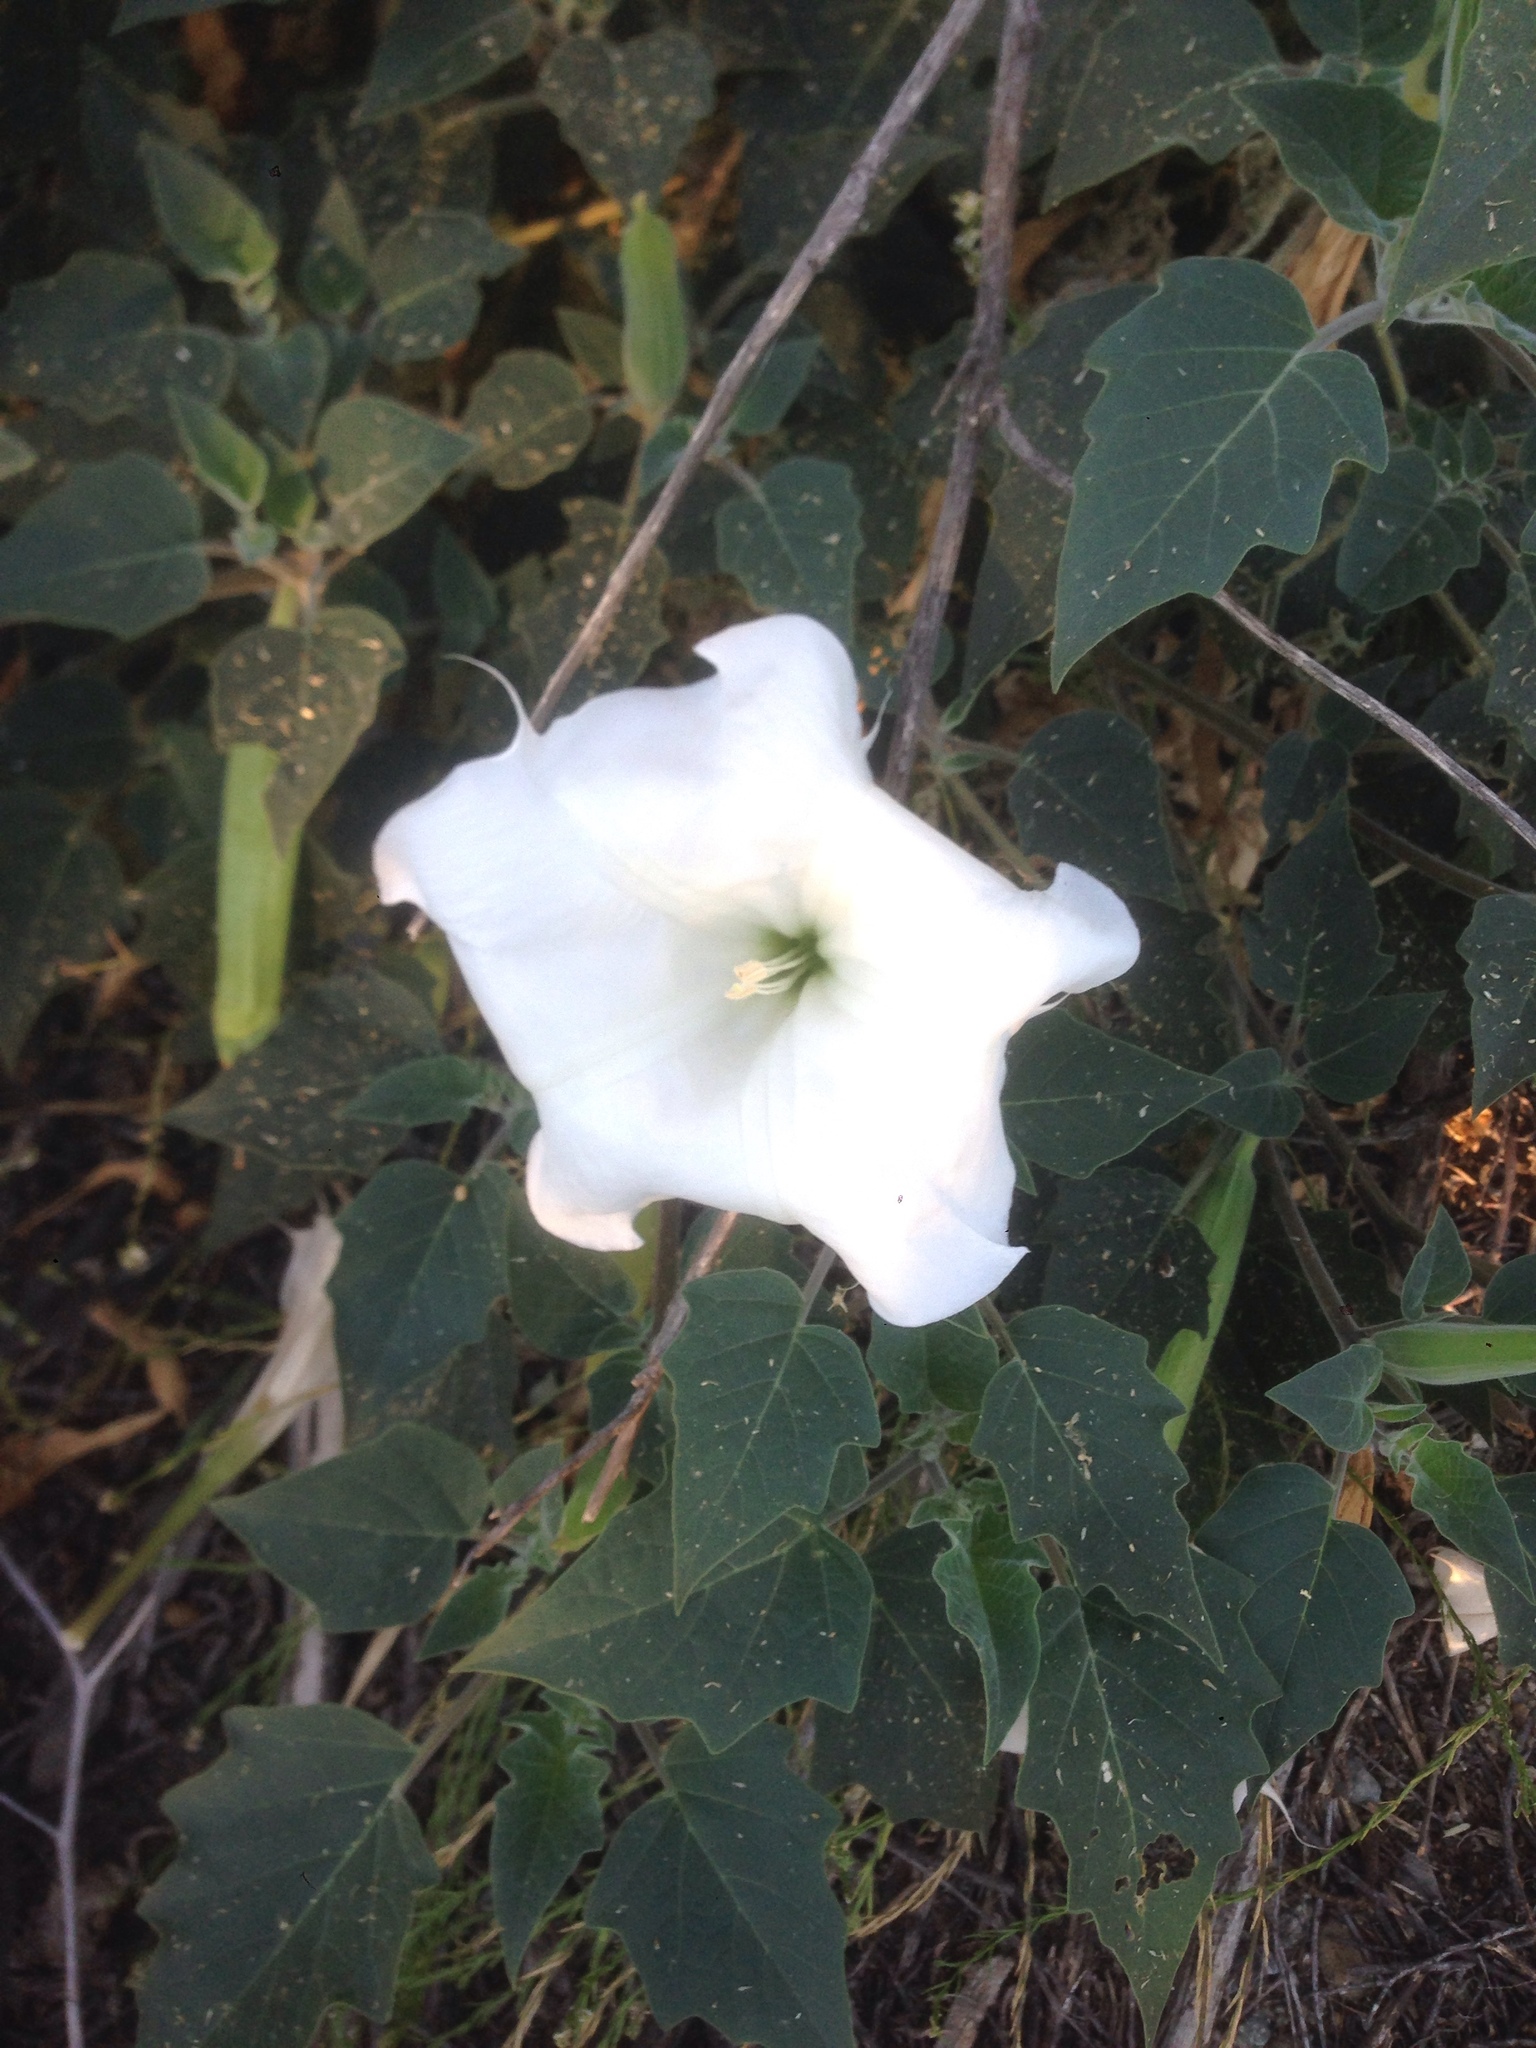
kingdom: Plantae
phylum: Tracheophyta
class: Magnoliopsida
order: Solanales
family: Solanaceae
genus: Datura
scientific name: Datura wrightii
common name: Sacred thorn-apple
